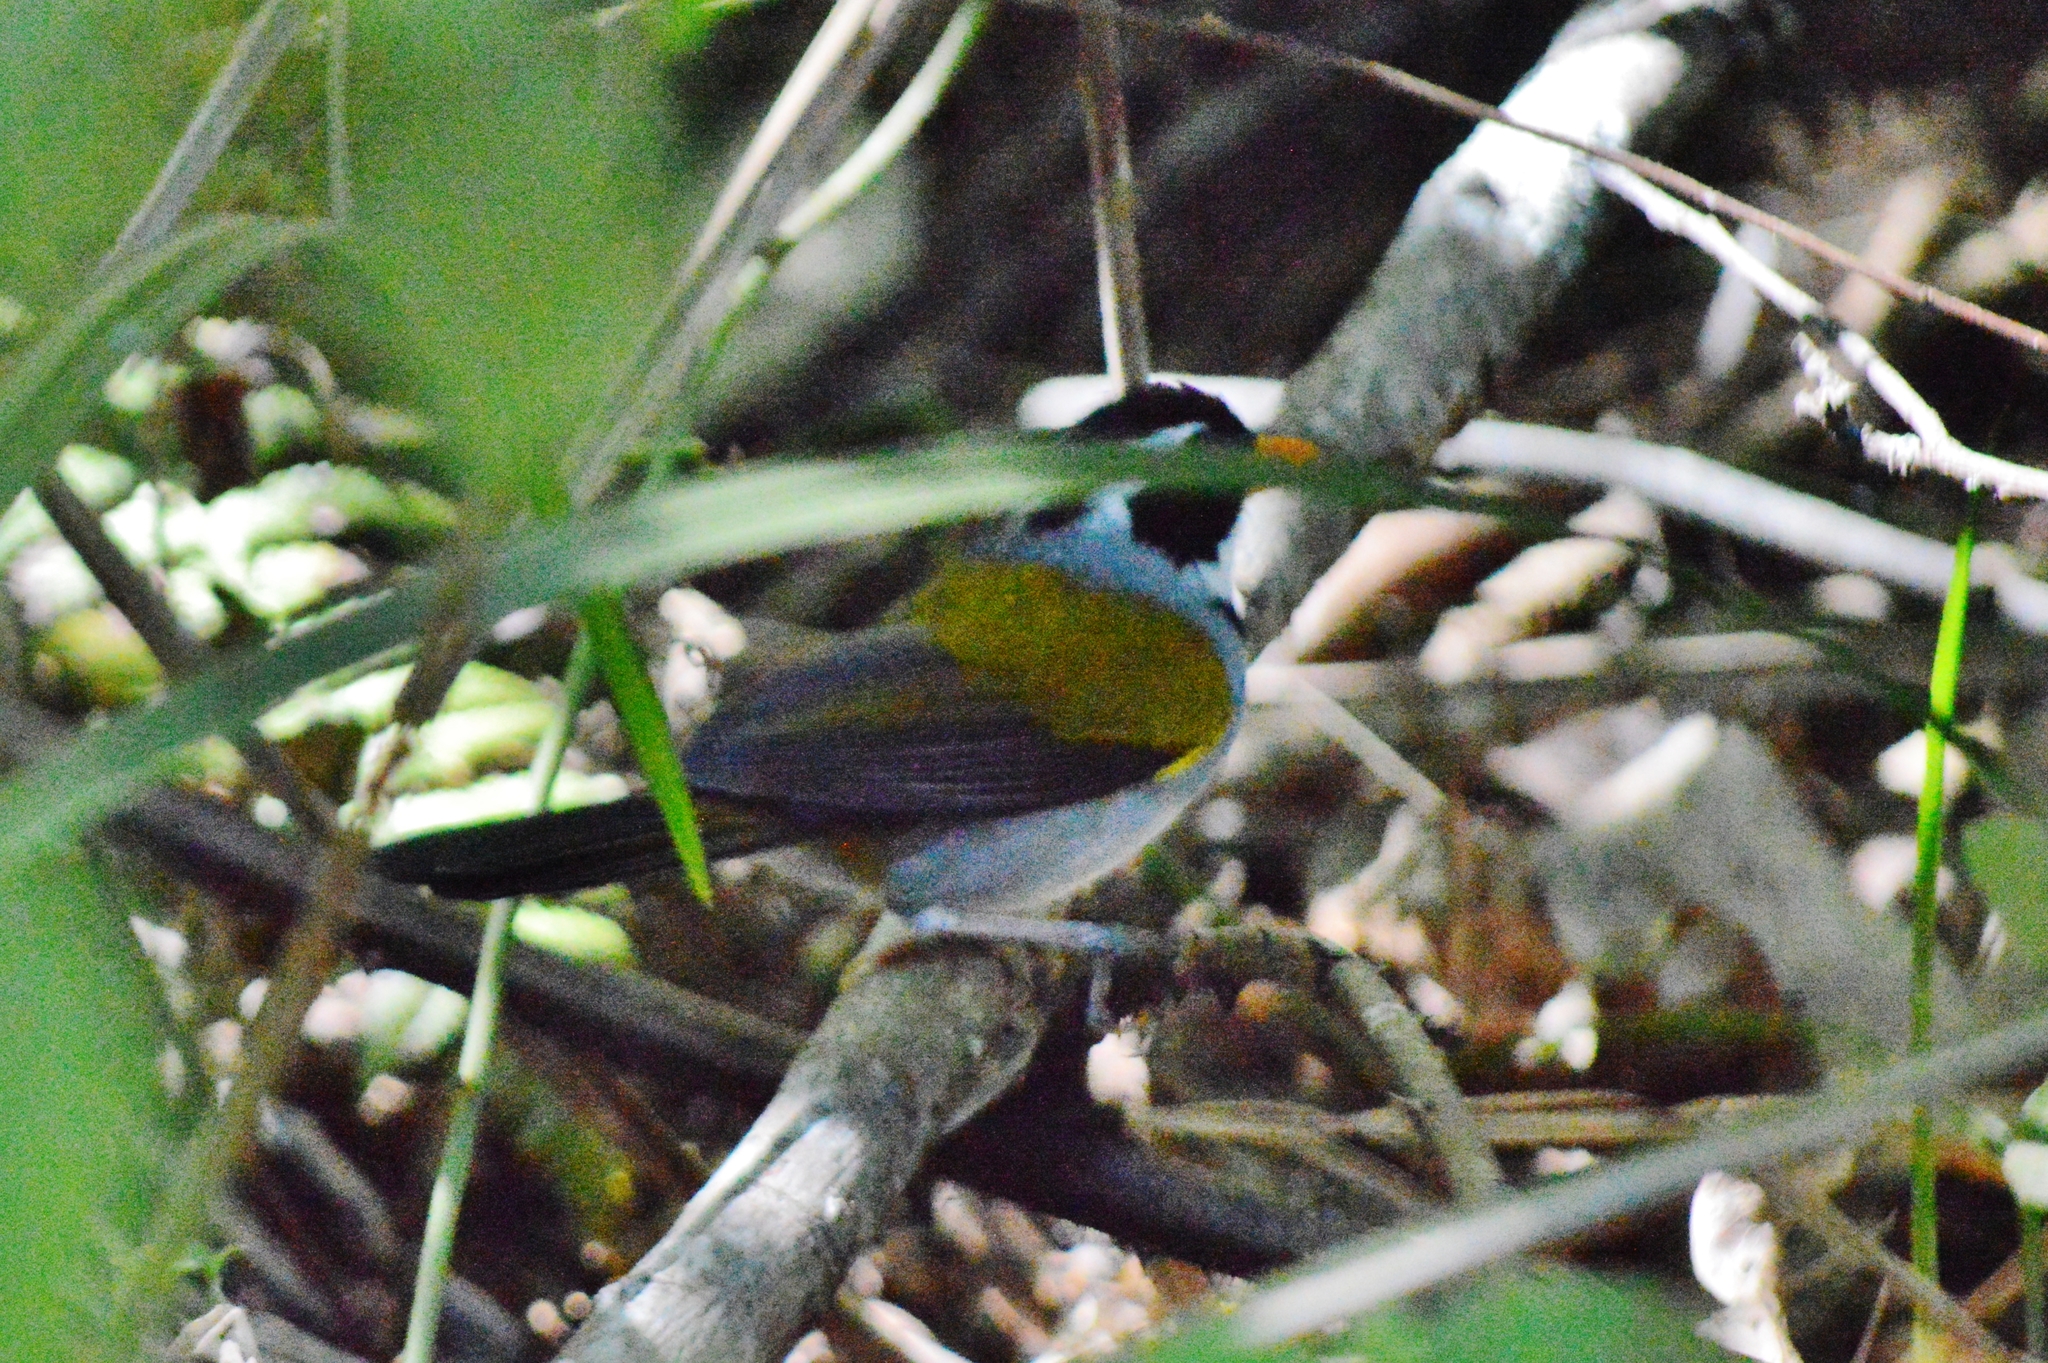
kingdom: Animalia
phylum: Chordata
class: Aves
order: Passeriformes
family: Passerellidae
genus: Arremon
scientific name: Arremon flavirostris
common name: Saffron-billed sparrow
